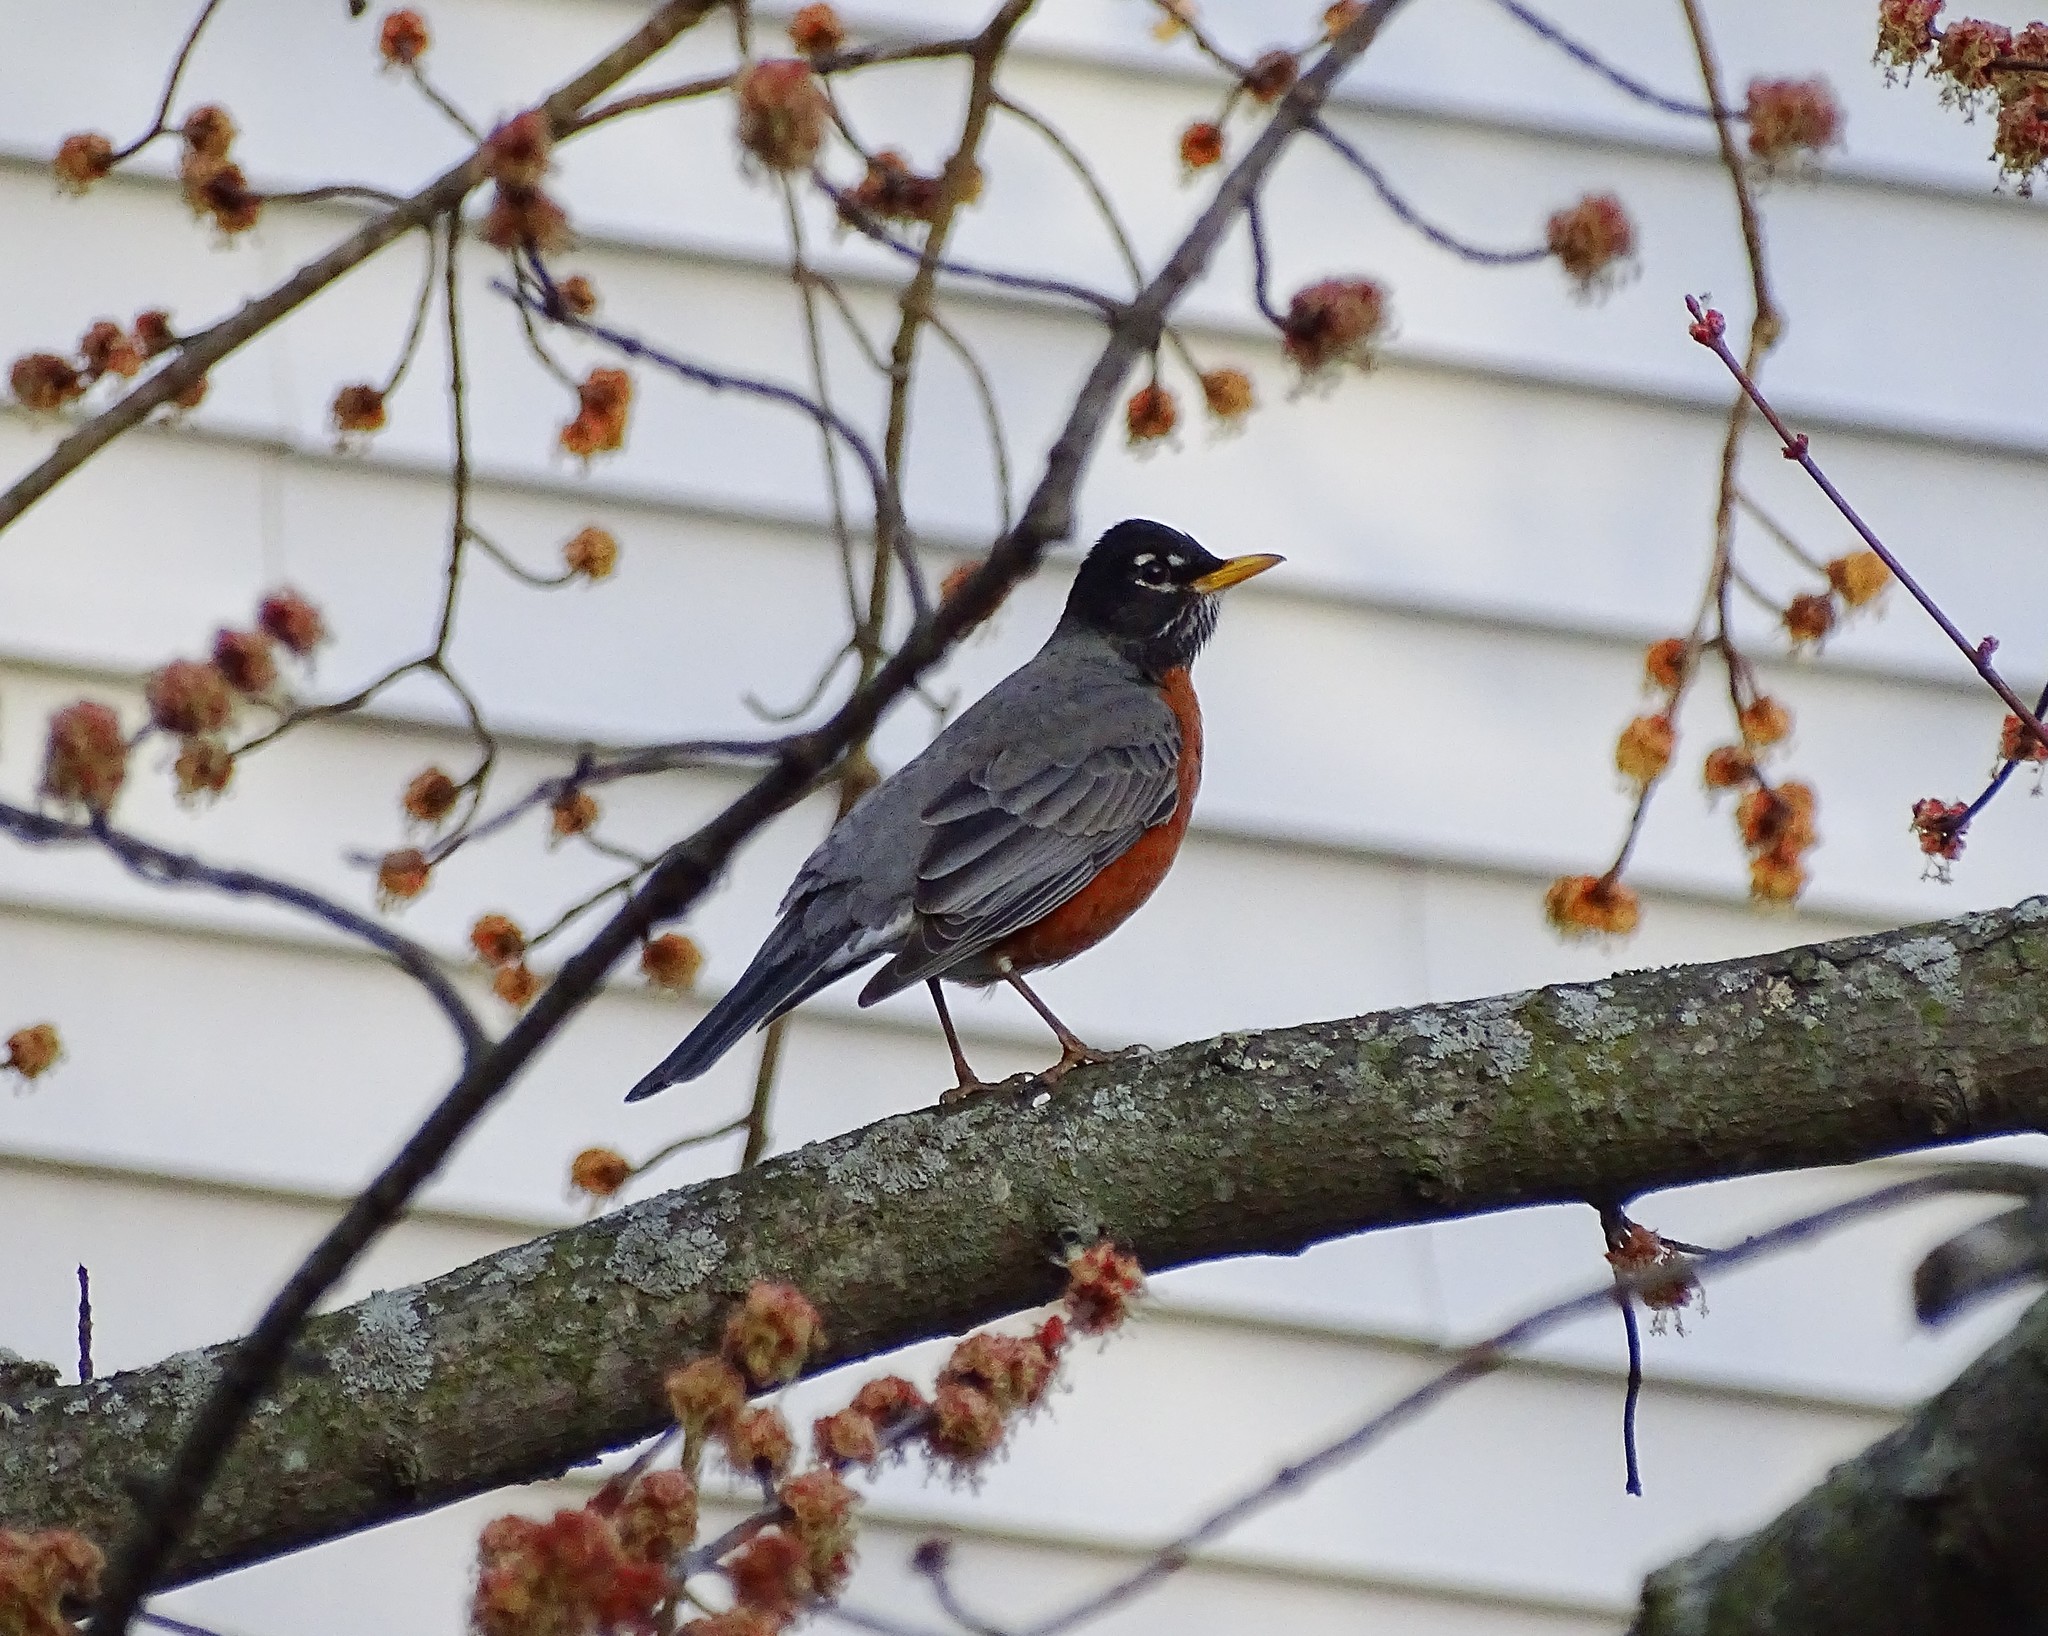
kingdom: Animalia
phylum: Chordata
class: Aves
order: Passeriformes
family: Turdidae
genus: Turdus
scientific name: Turdus migratorius
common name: American robin
